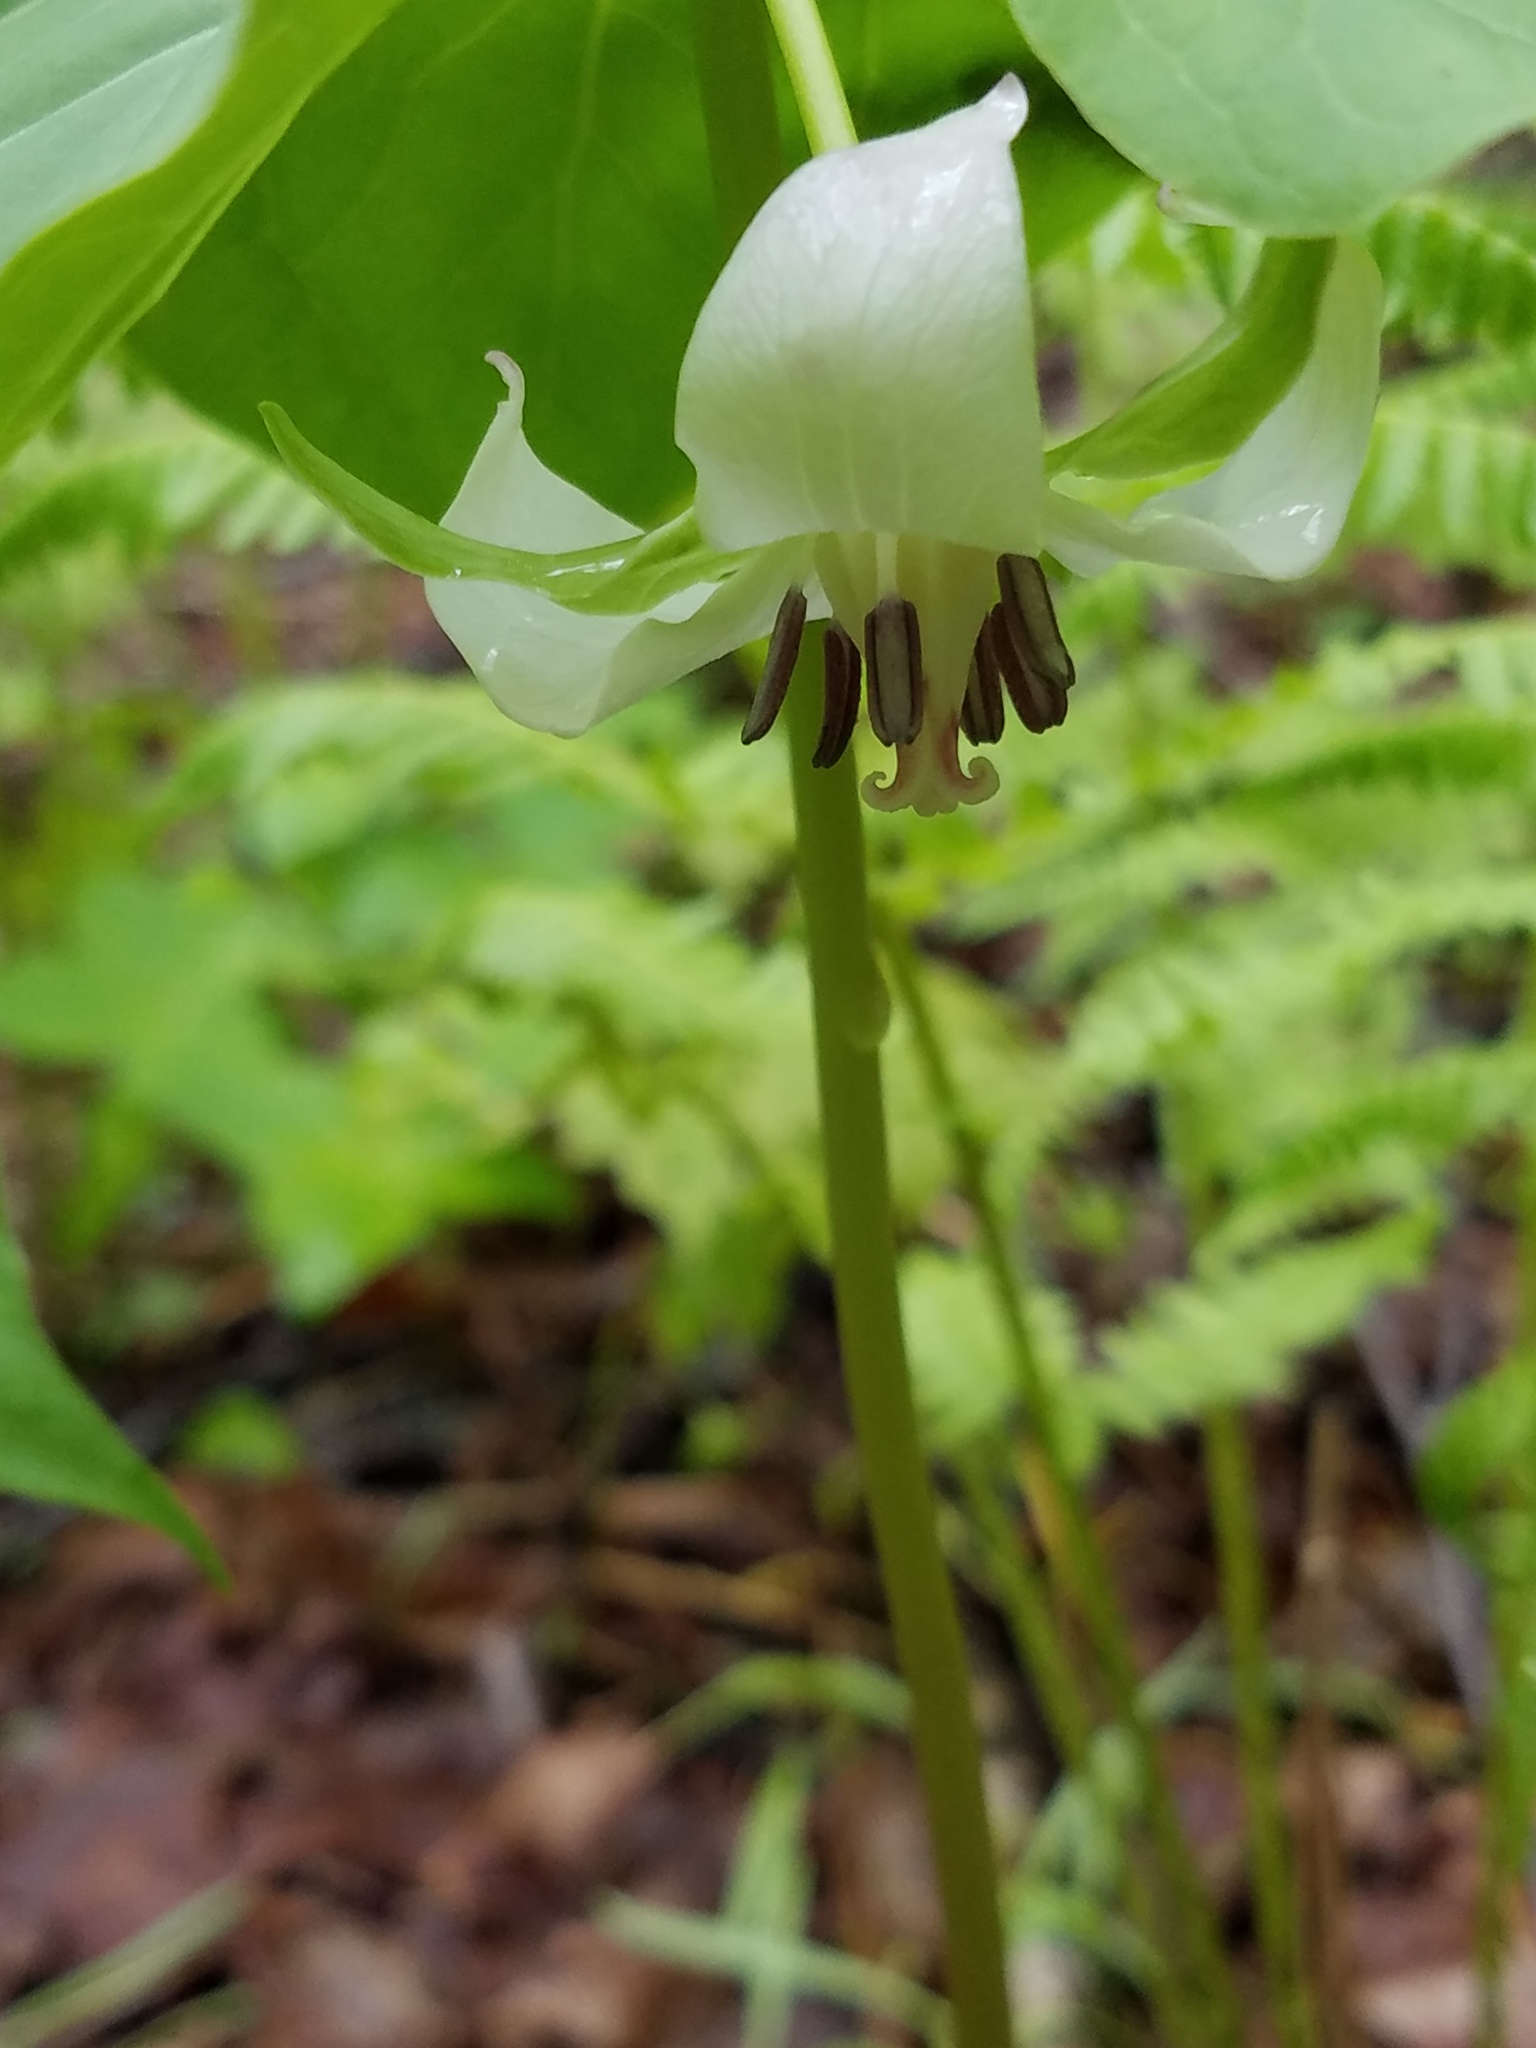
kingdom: Plantae
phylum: Tracheophyta
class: Liliopsida
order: Liliales
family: Melanthiaceae
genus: Trillium
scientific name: Trillium cernuum
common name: Nodding trillium
